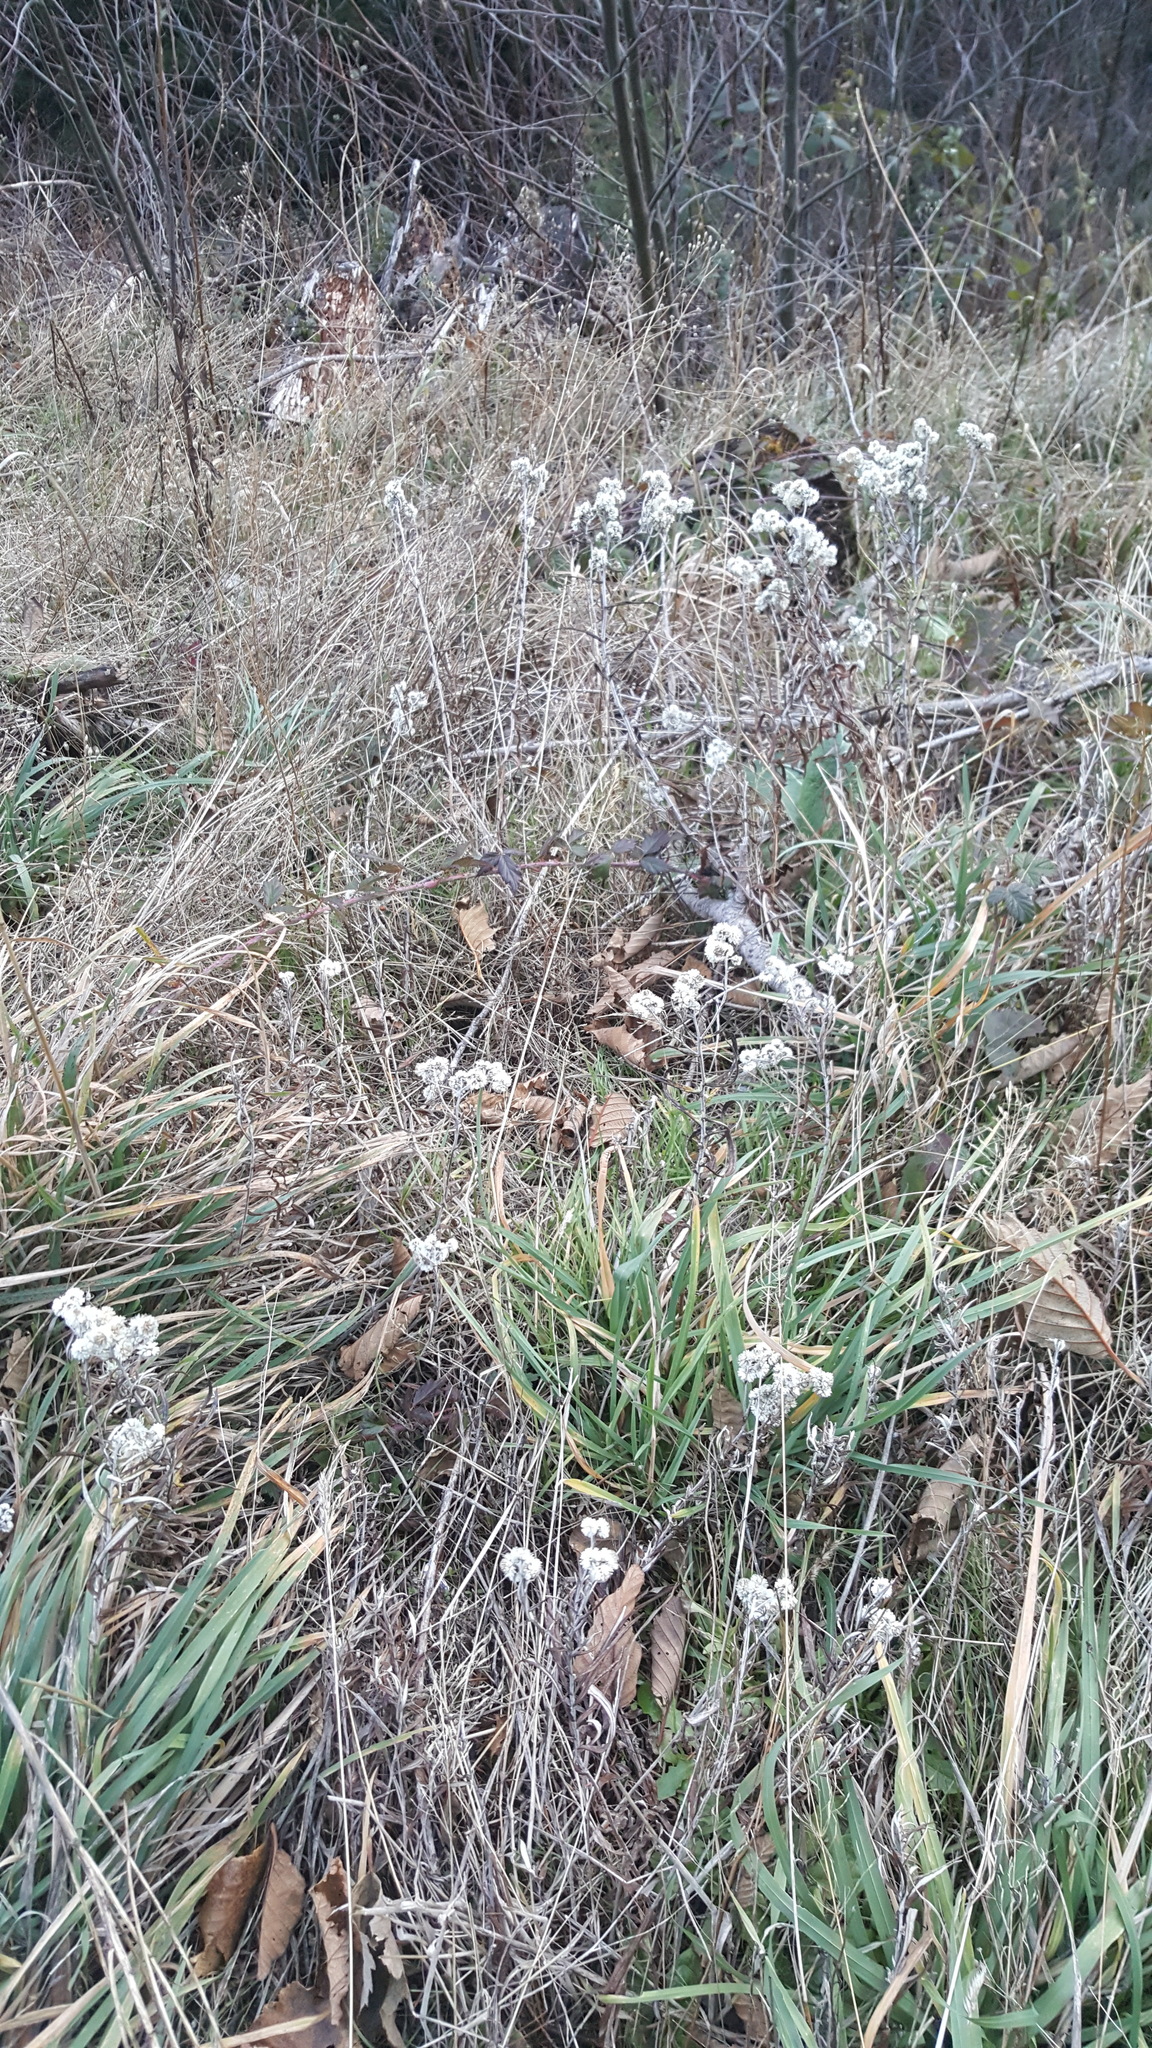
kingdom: Plantae
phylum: Tracheophyta
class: Magnoliopsida
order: Asterales
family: Asteraceae
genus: Anaphalis
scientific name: Anaphalis margaritacea
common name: Pearly everlasting
